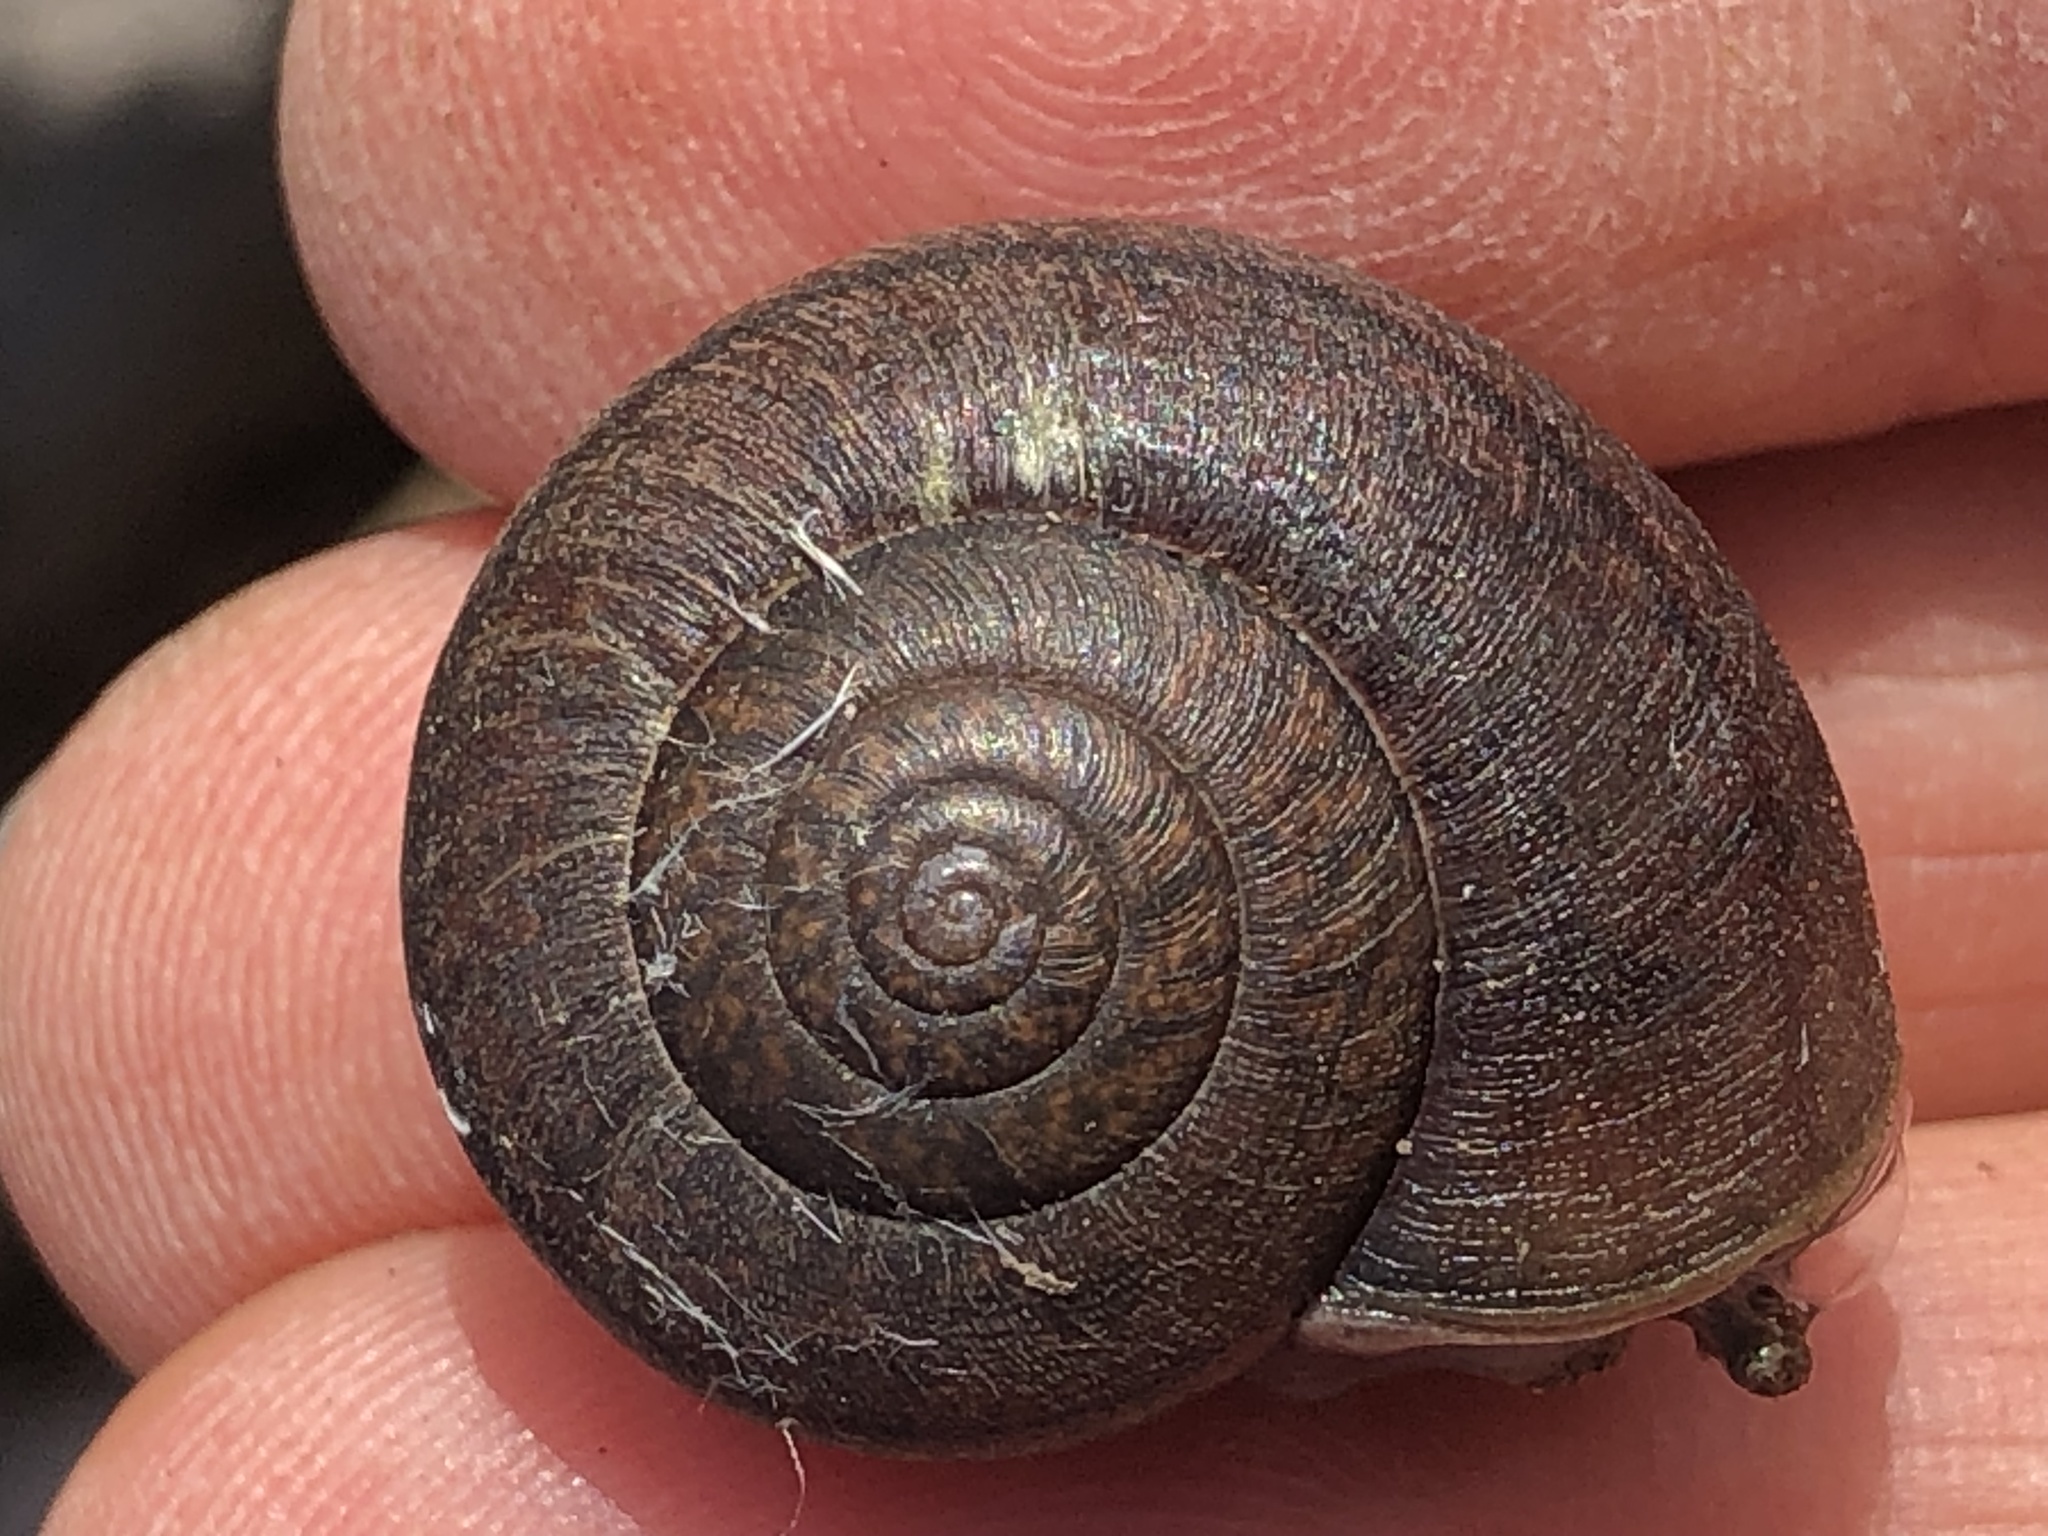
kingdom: Animalia
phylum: Mollusca
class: Gastropoda
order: Stylommatophora
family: Xanthonychidae
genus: Helminthoglypta
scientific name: Helminthoglypta nickliniana
